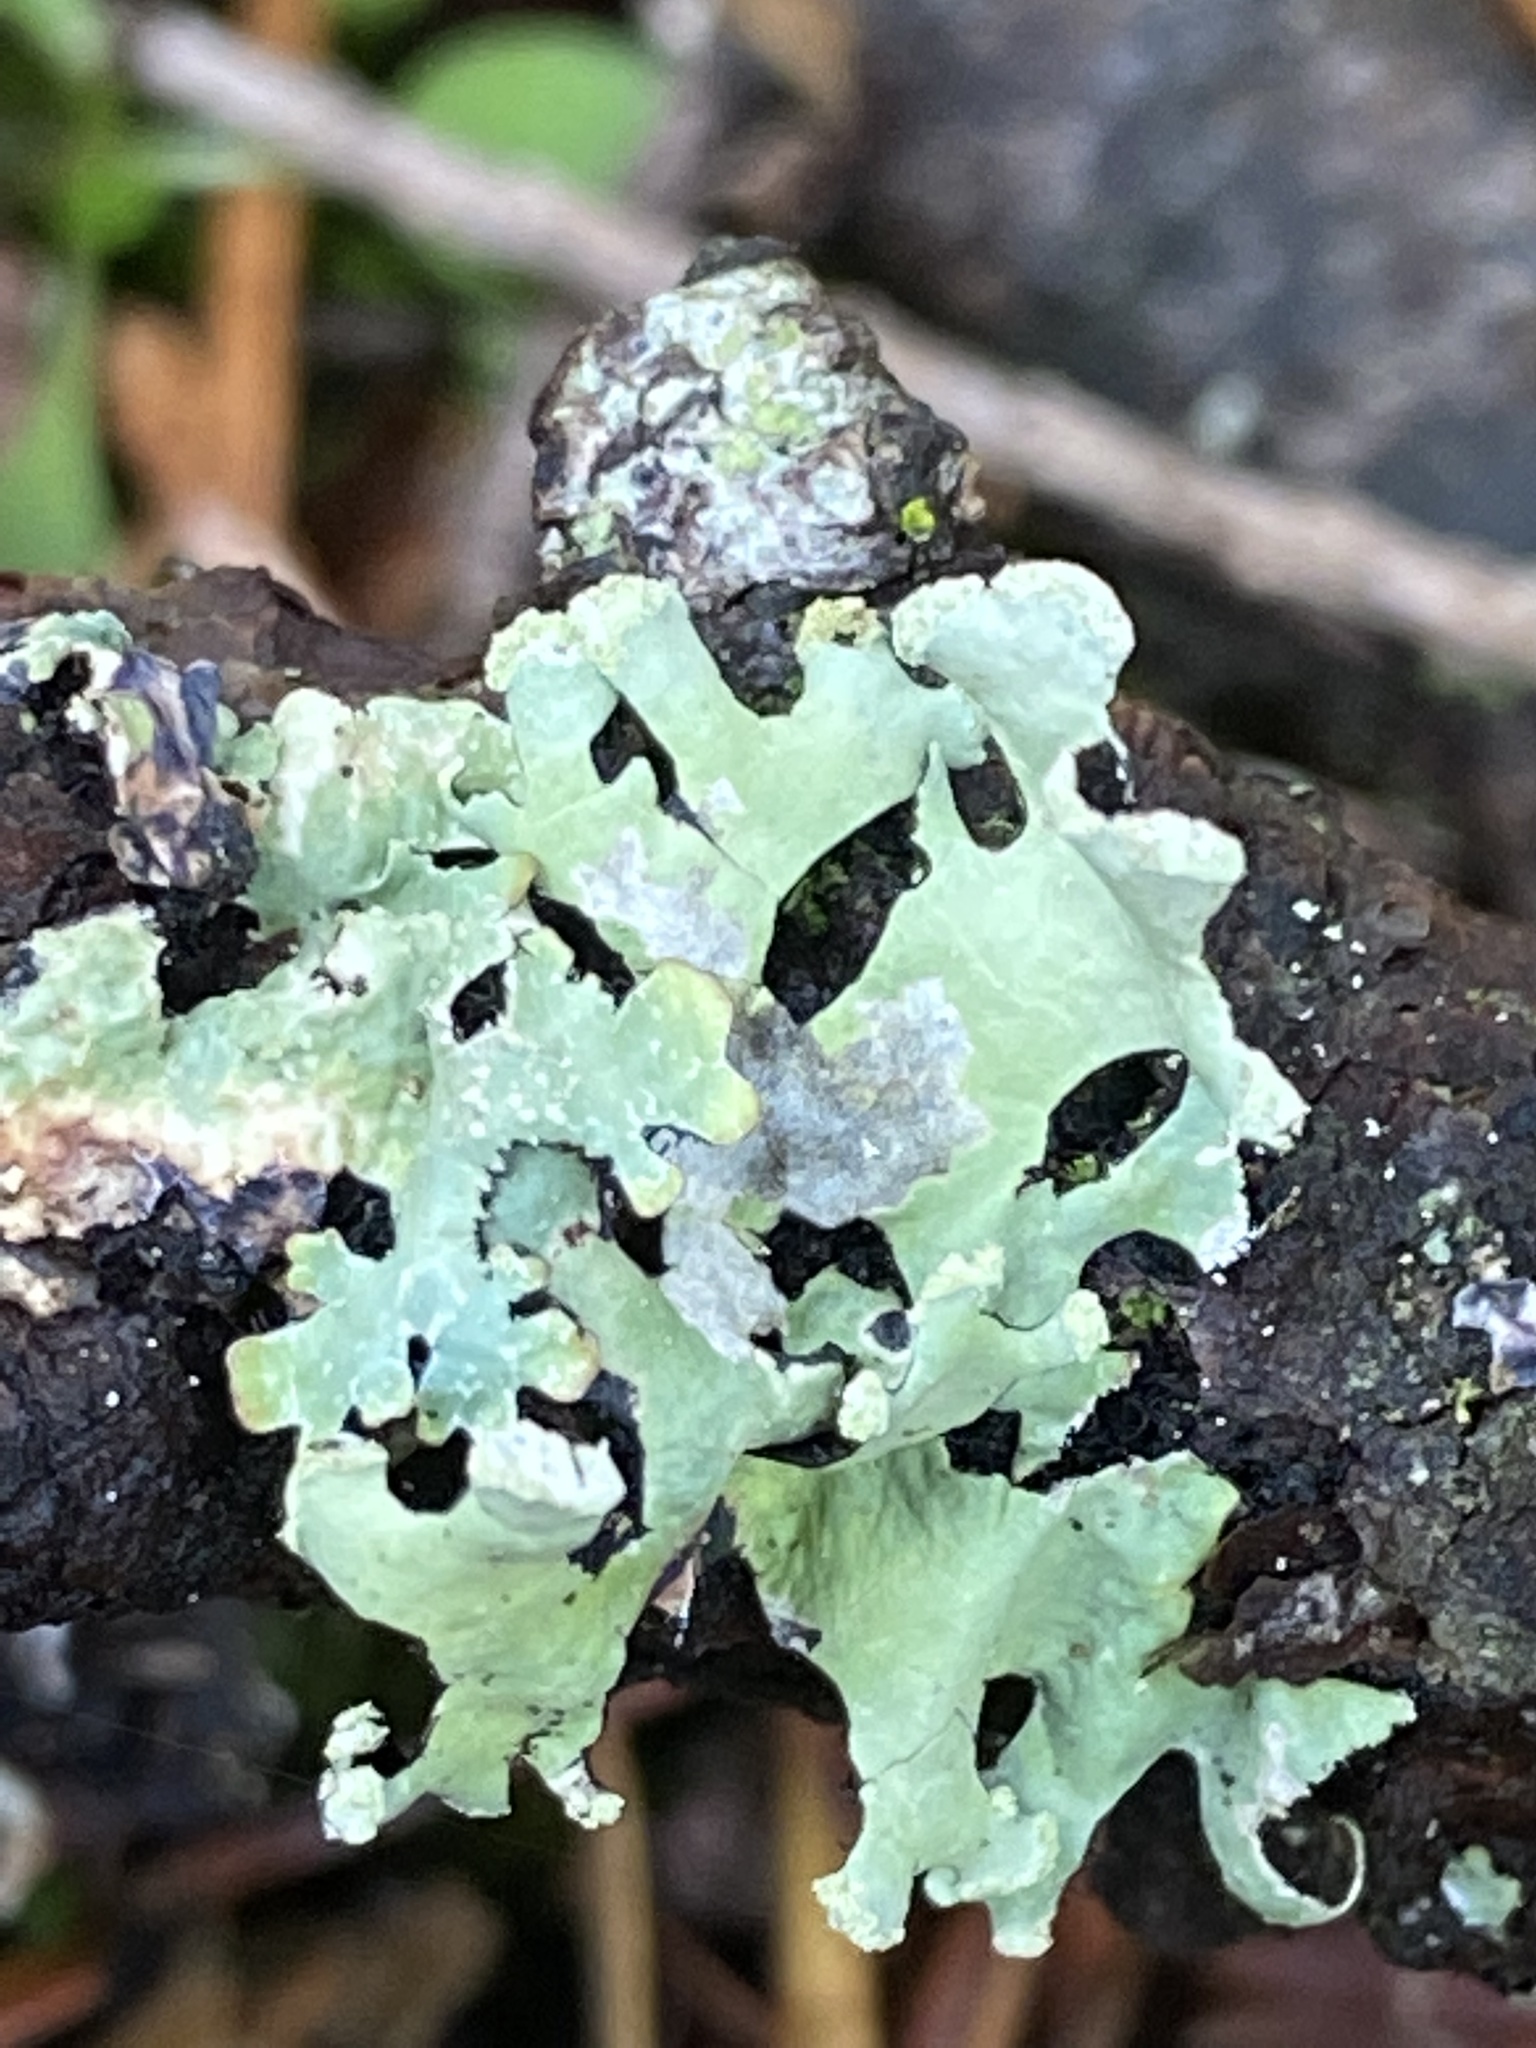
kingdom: Fungi
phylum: Ascomycota
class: Lecanoromycetes
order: Lecanorales
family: Parmeliaceae
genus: Hypotrachyna
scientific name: Hypotrachyna sinuosa
